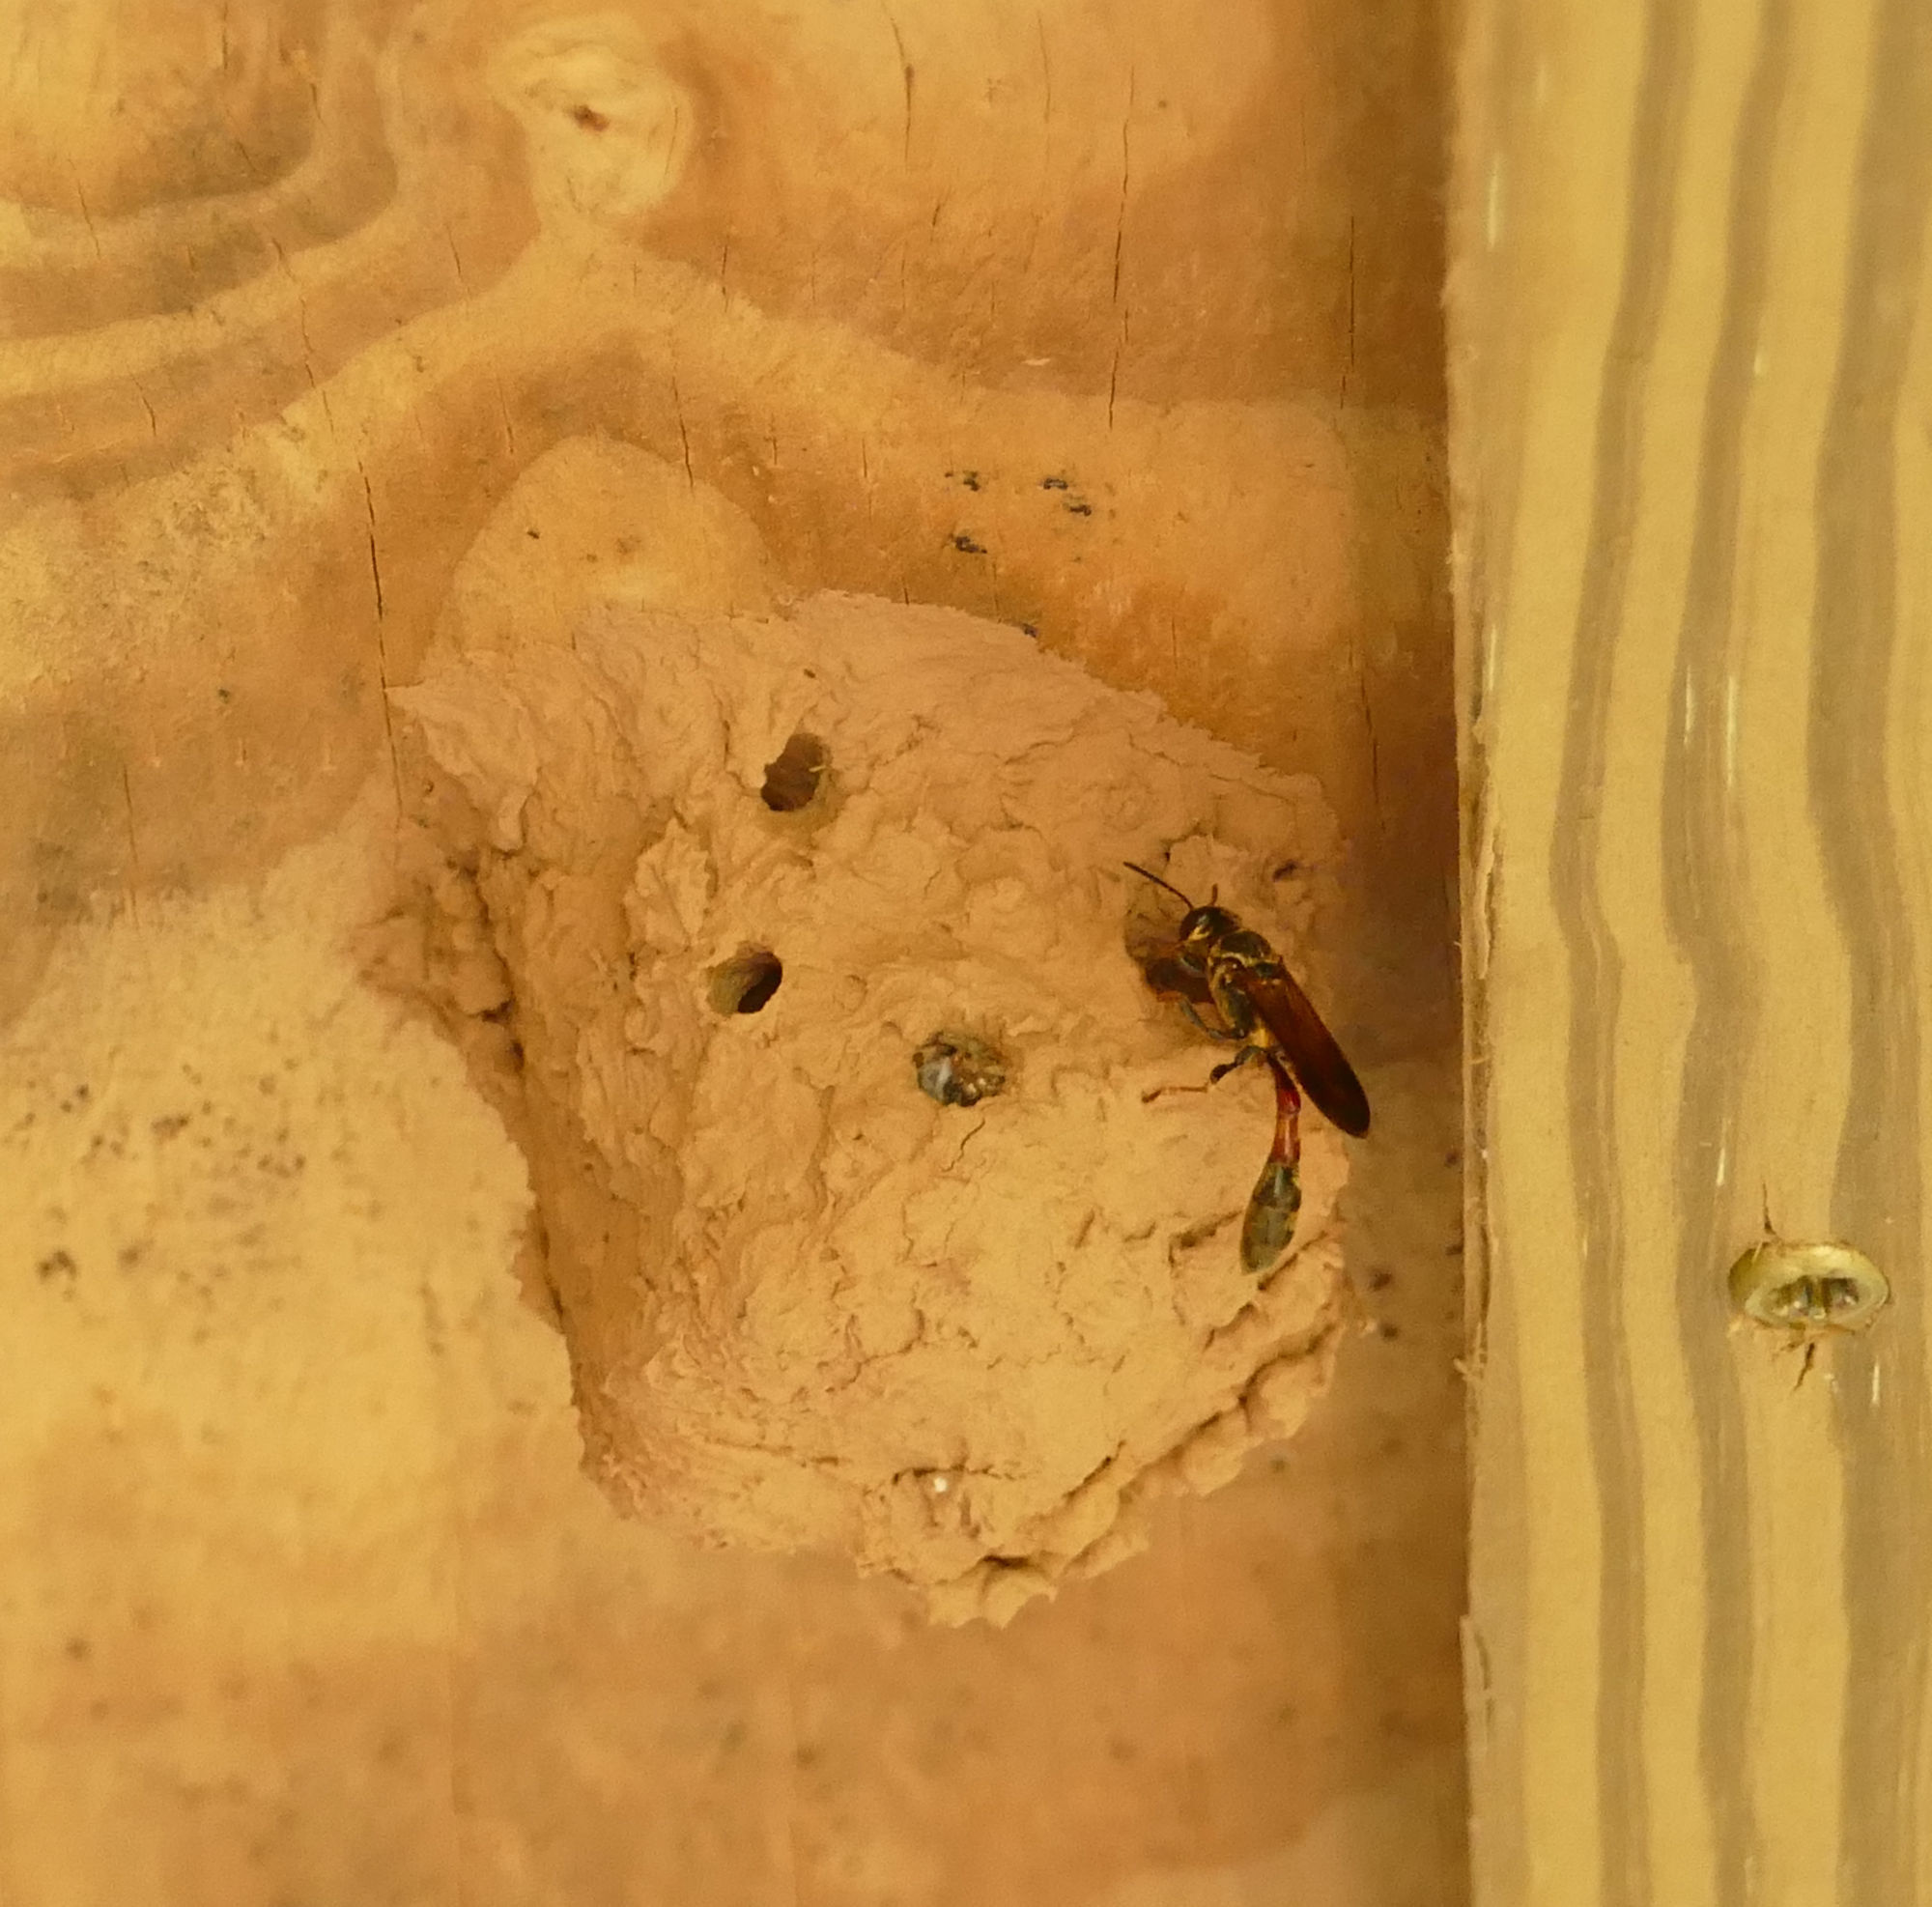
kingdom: Animalia
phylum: Arthropoda
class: Insecta
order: Hymenoptera
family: Crabronidae
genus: Trypoxylon
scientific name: Trypoxylon texense
